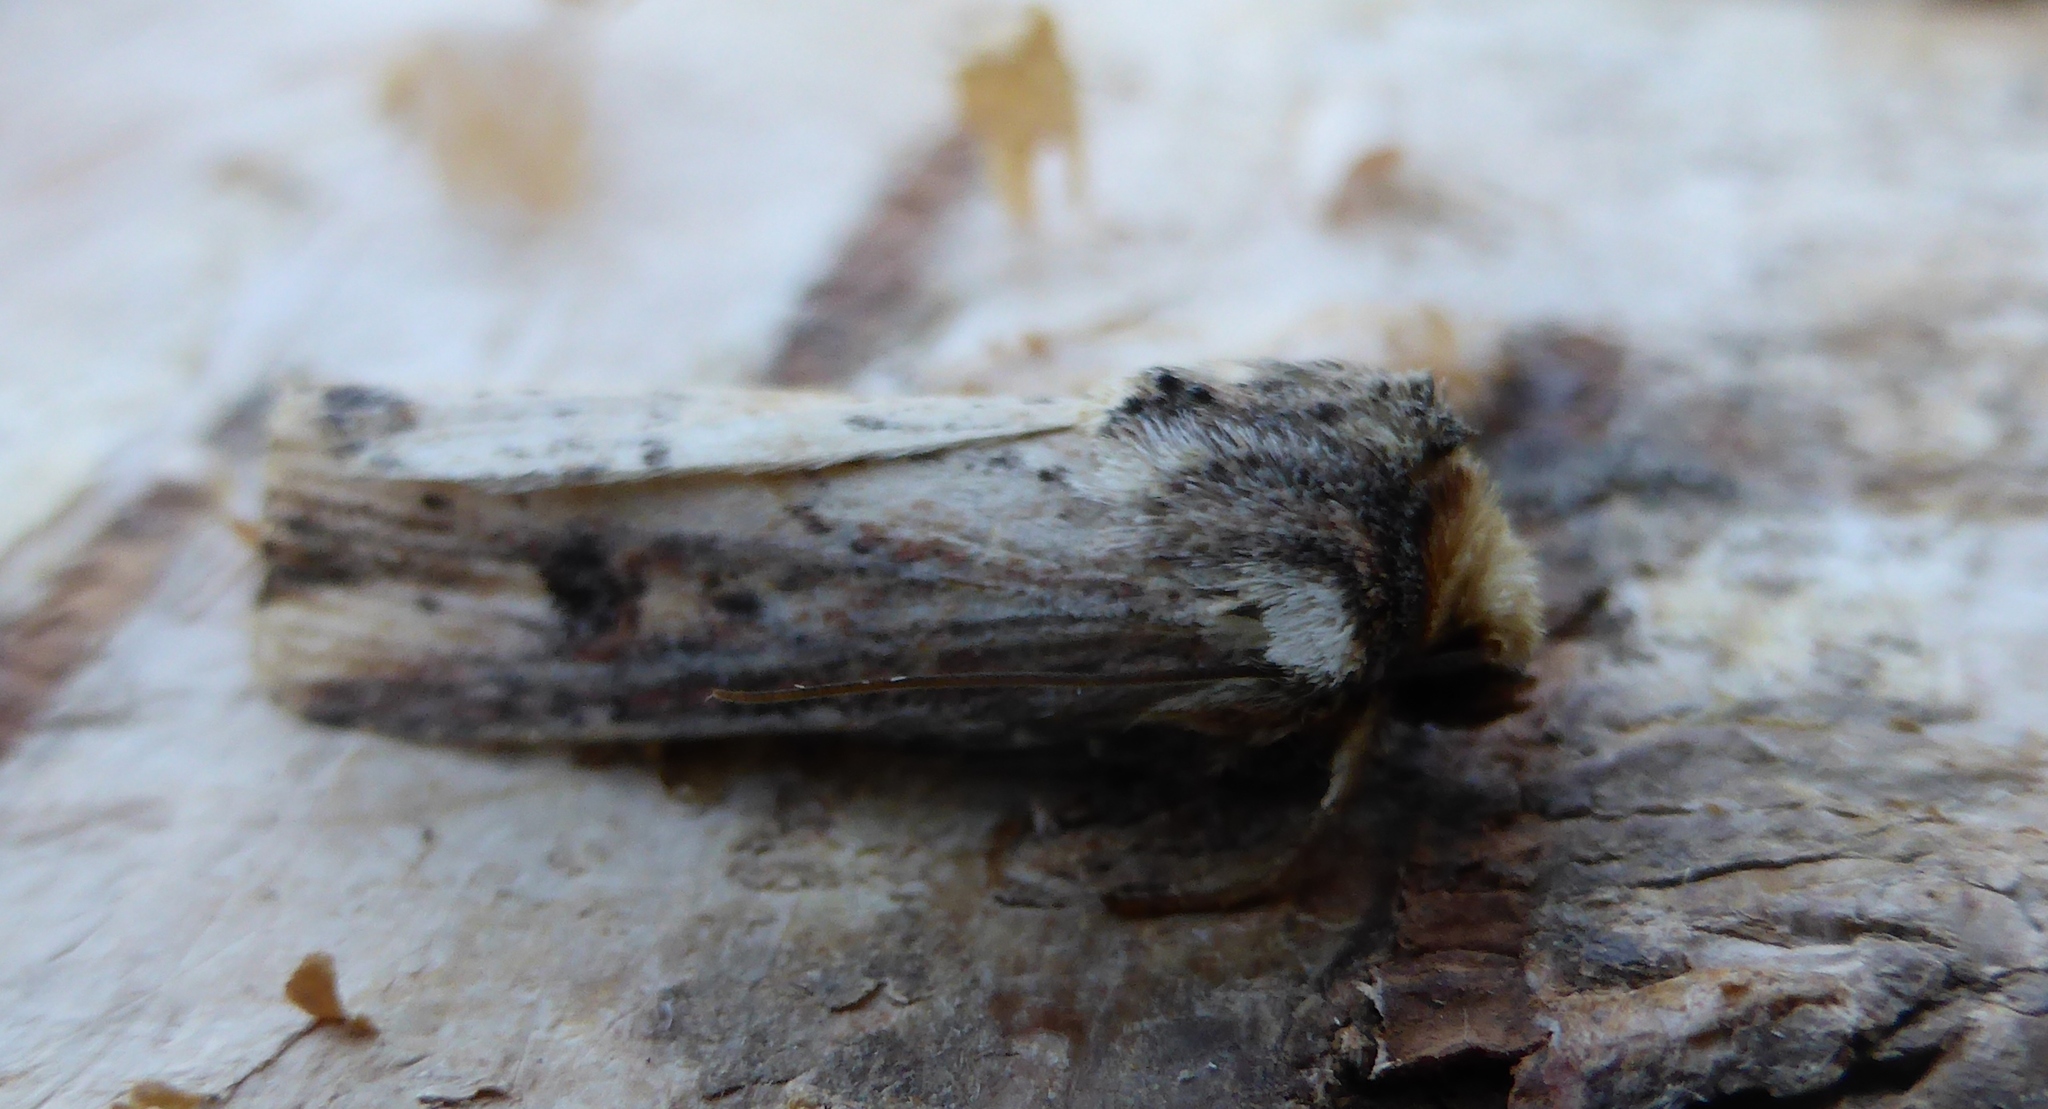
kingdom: Animalia
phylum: Arthropoda
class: Insecta
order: Lepidoptera
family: Noctuidae
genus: Axylia
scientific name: Axylia putris
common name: Flame
